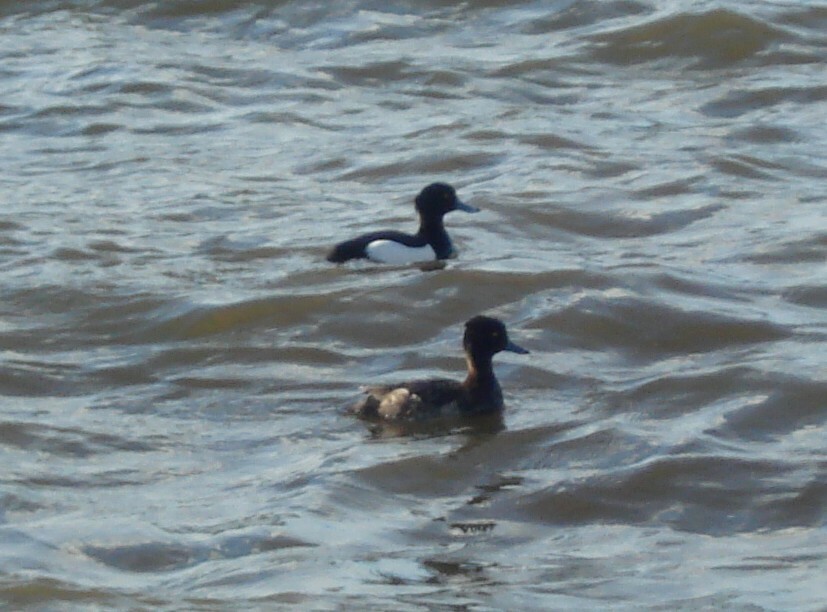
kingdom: Animalia
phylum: Chordata
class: Aves
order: Anseriformes
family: Anatidae
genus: Aythya
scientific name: Aythya fuligula
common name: Tufted duck
